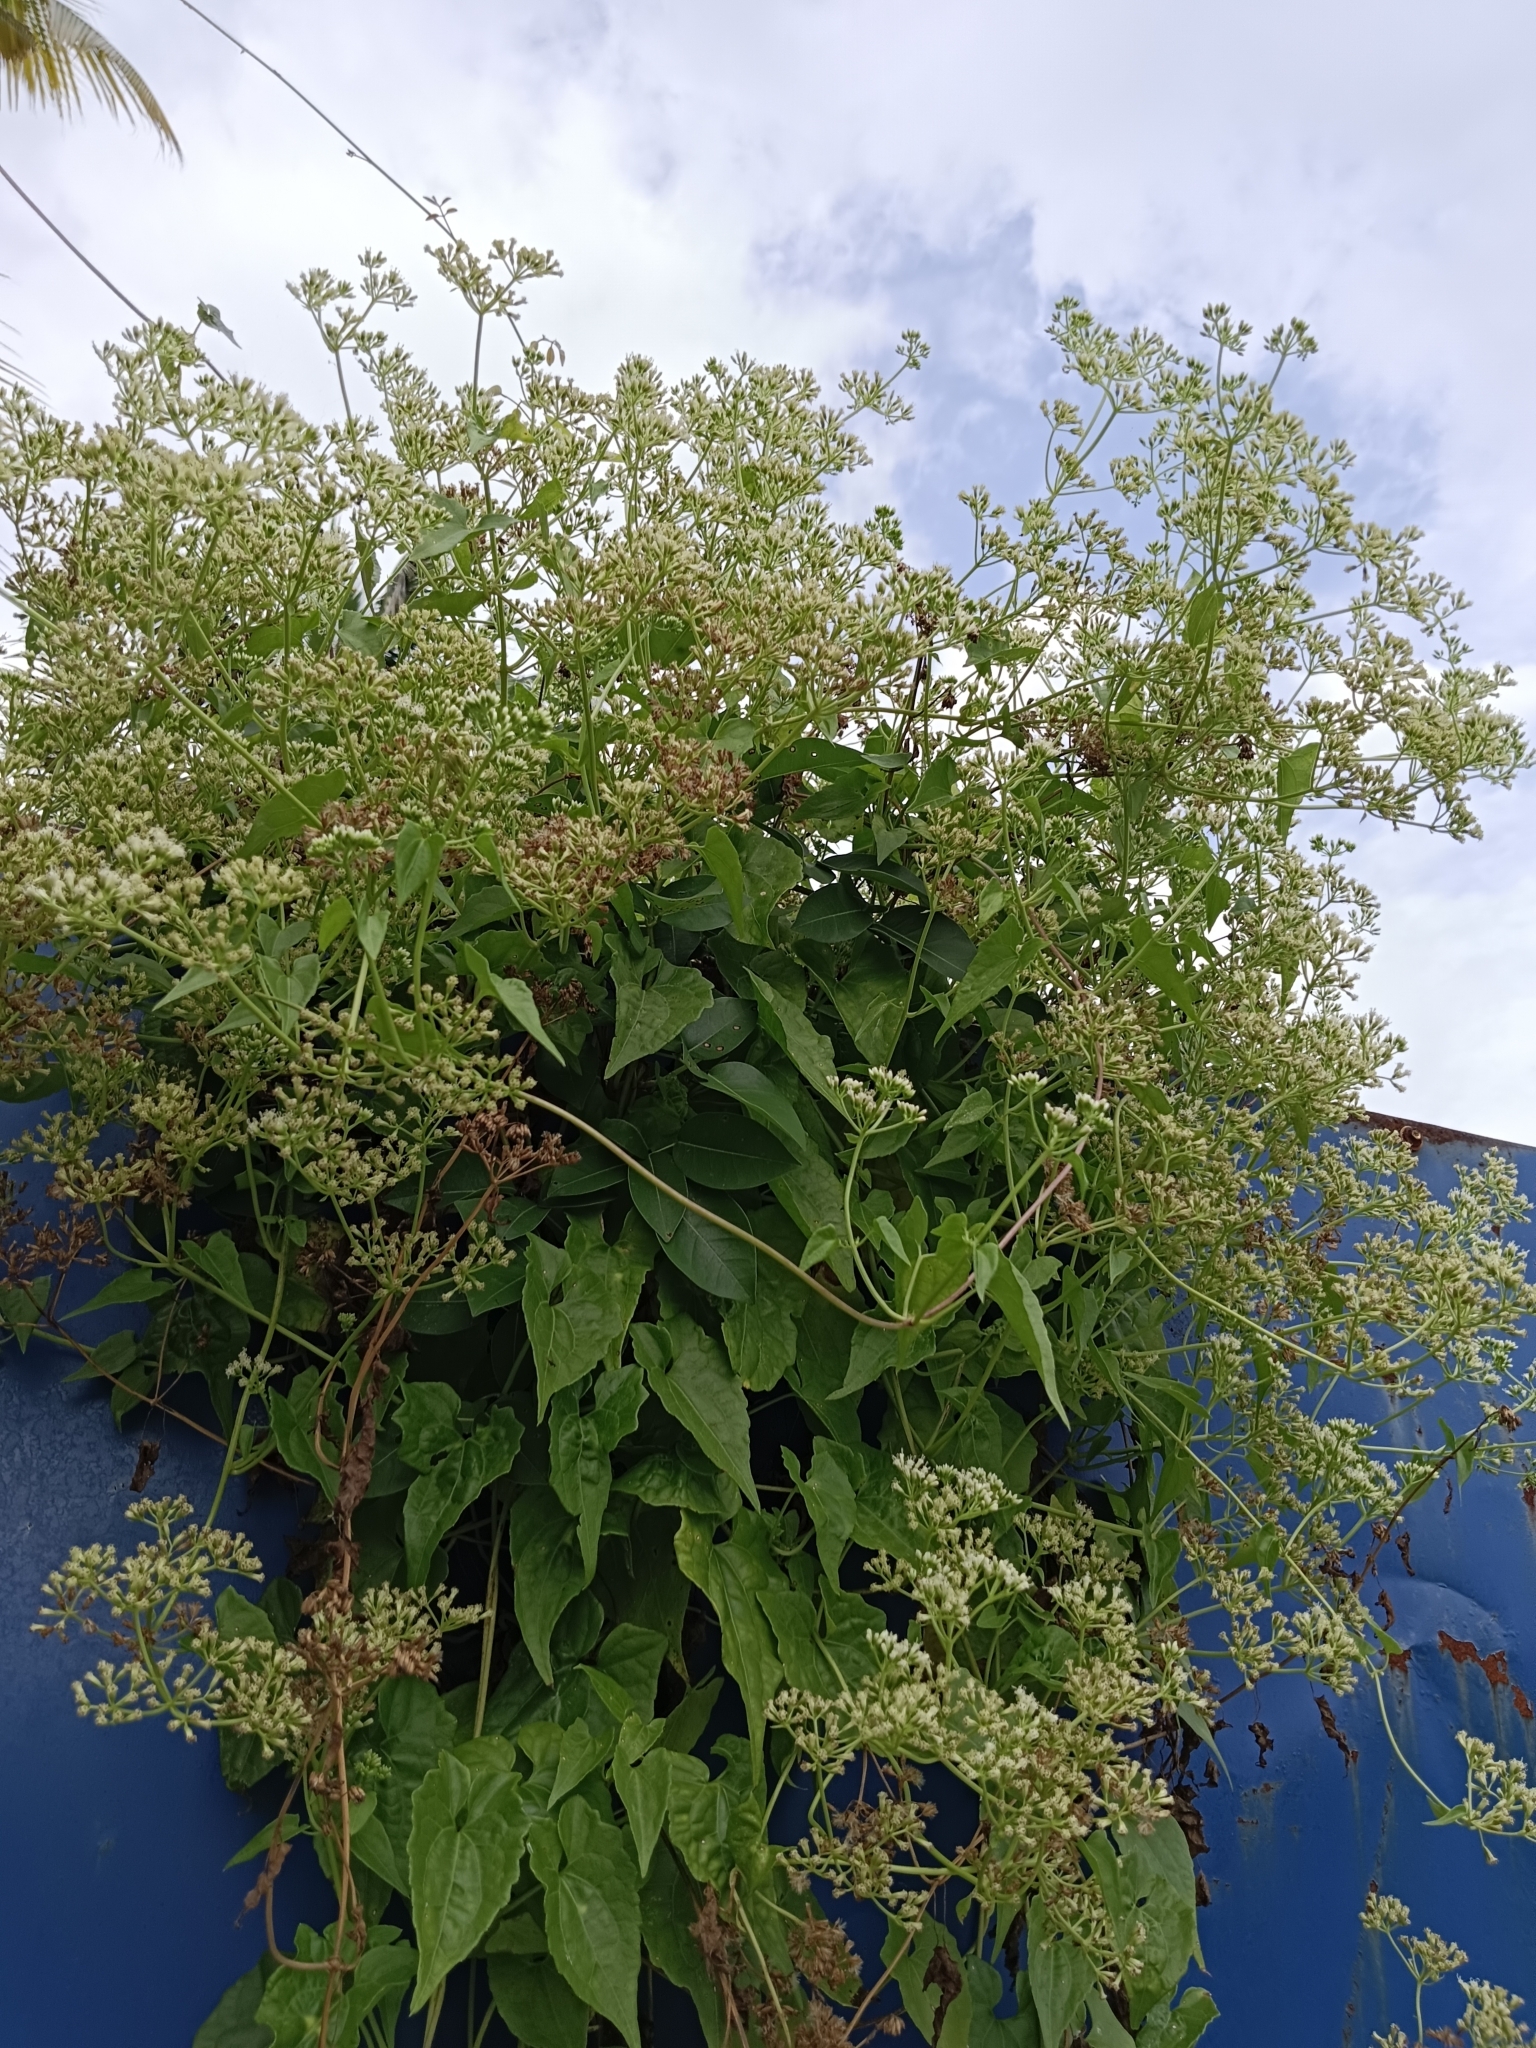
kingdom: Plantae
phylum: Tracheophyta
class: Magnoliopsida
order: Asterales
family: Asteraceae
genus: Mikania
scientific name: Mikania micrantha
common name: Mile-a-minute
